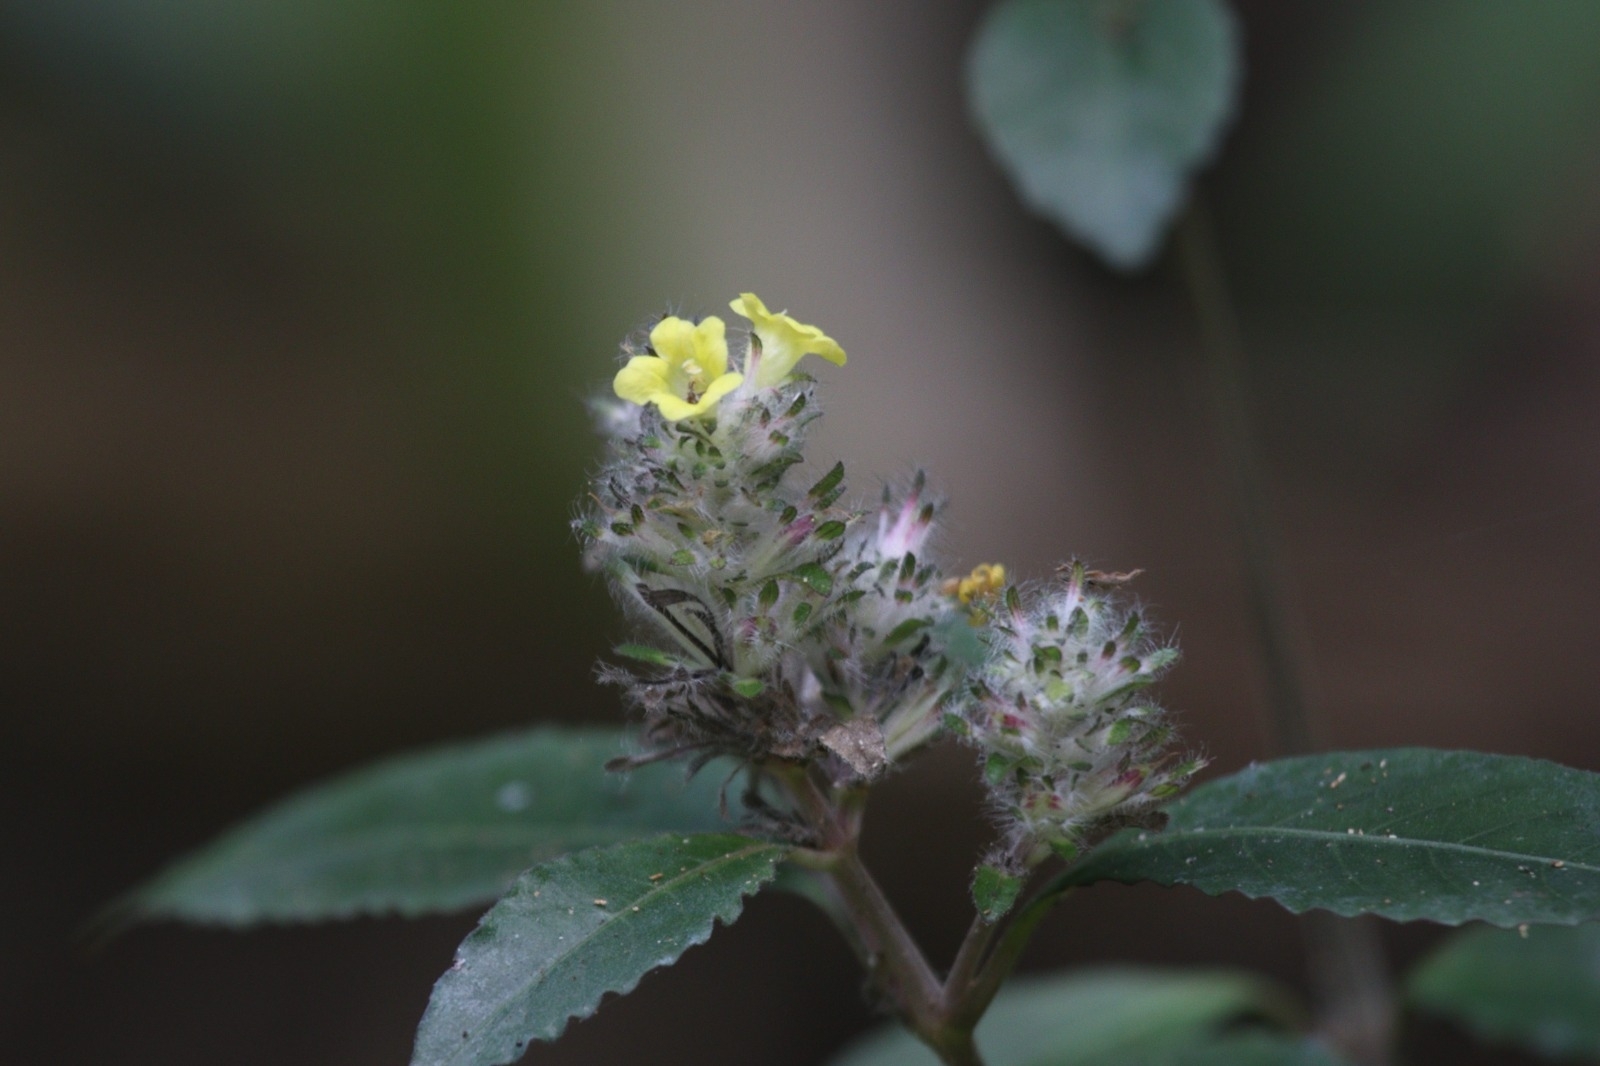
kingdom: Plantae
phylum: Tracheophyta
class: Magnoliopsida
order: Lamiales
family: Acanthaceae
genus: Strobilanthes
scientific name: Strobilanthes andamanensis
